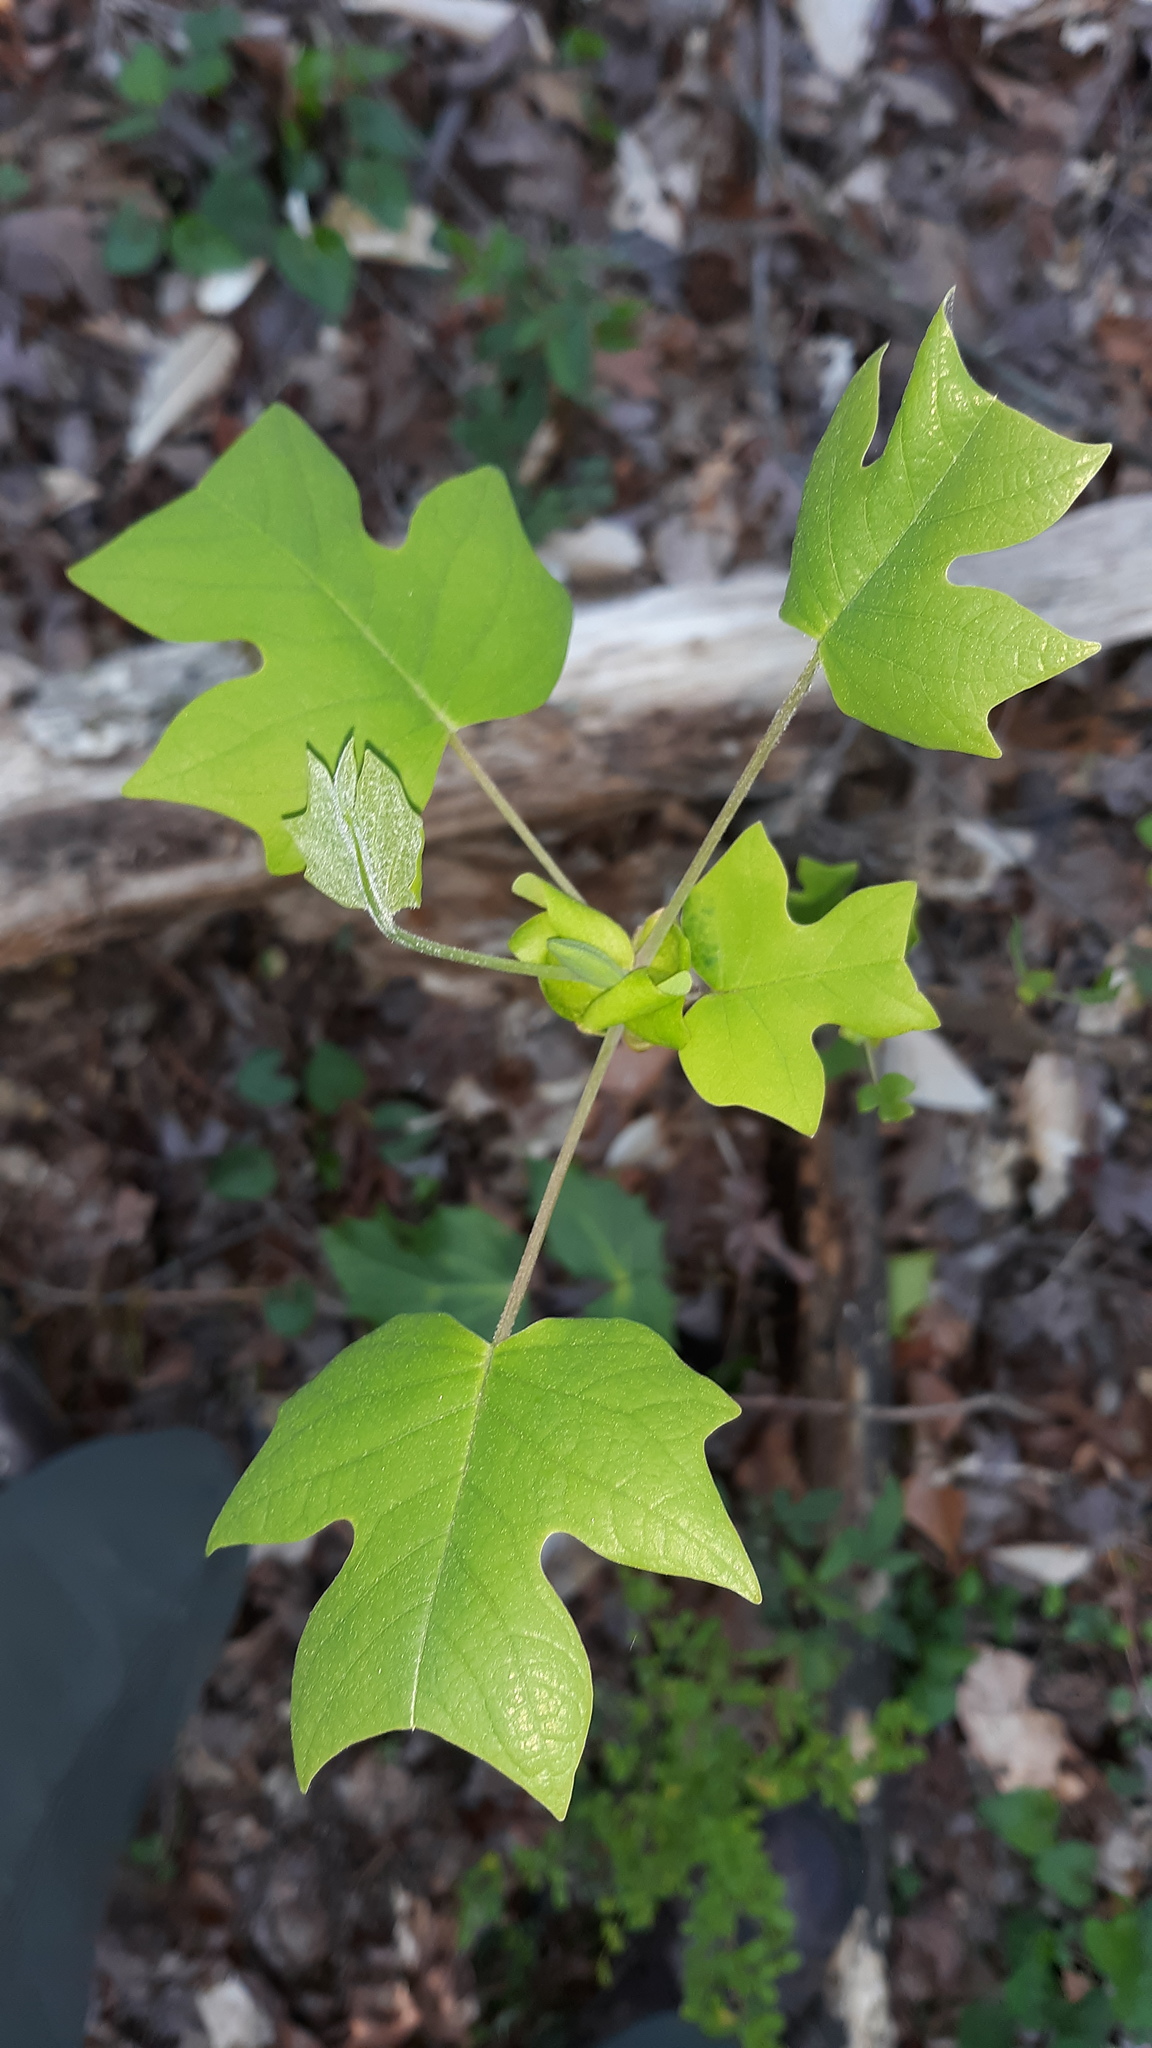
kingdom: Plantae
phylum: Tracheophyta
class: Magnoliopsida
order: Magnoliales
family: Magnoliaceae
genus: Liriodendron
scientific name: Liriodendron tulipifera
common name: Tulip tree
